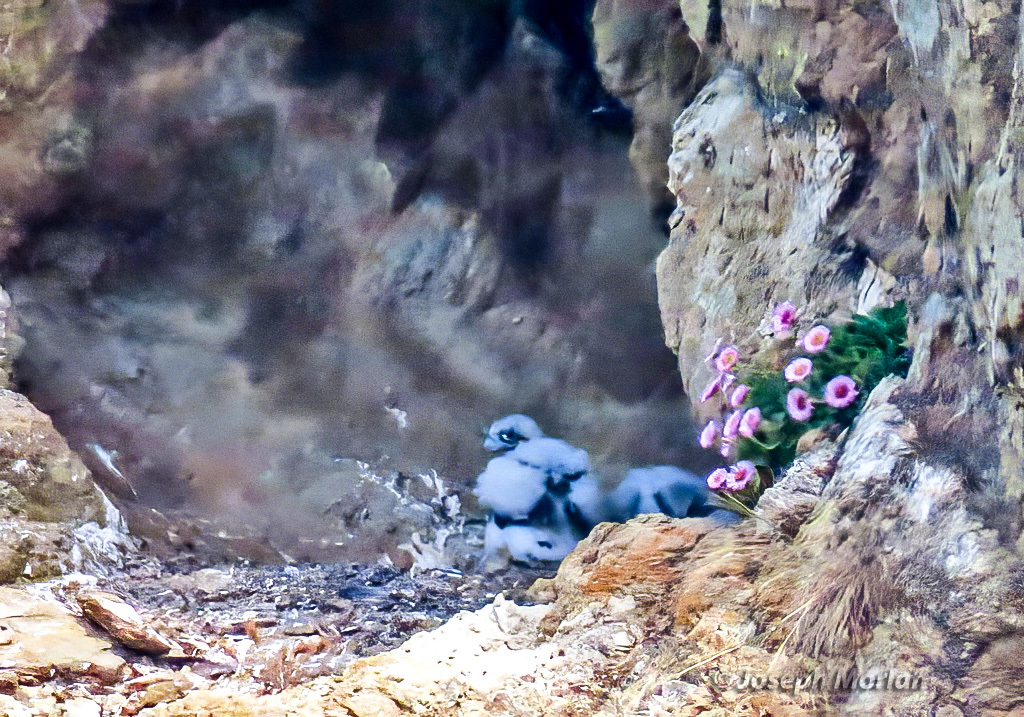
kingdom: Animalia
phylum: Chordata
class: Aves
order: Falconiformes
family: Falconidae
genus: Falco
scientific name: Falco peregrinus
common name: Peregrine falcon
